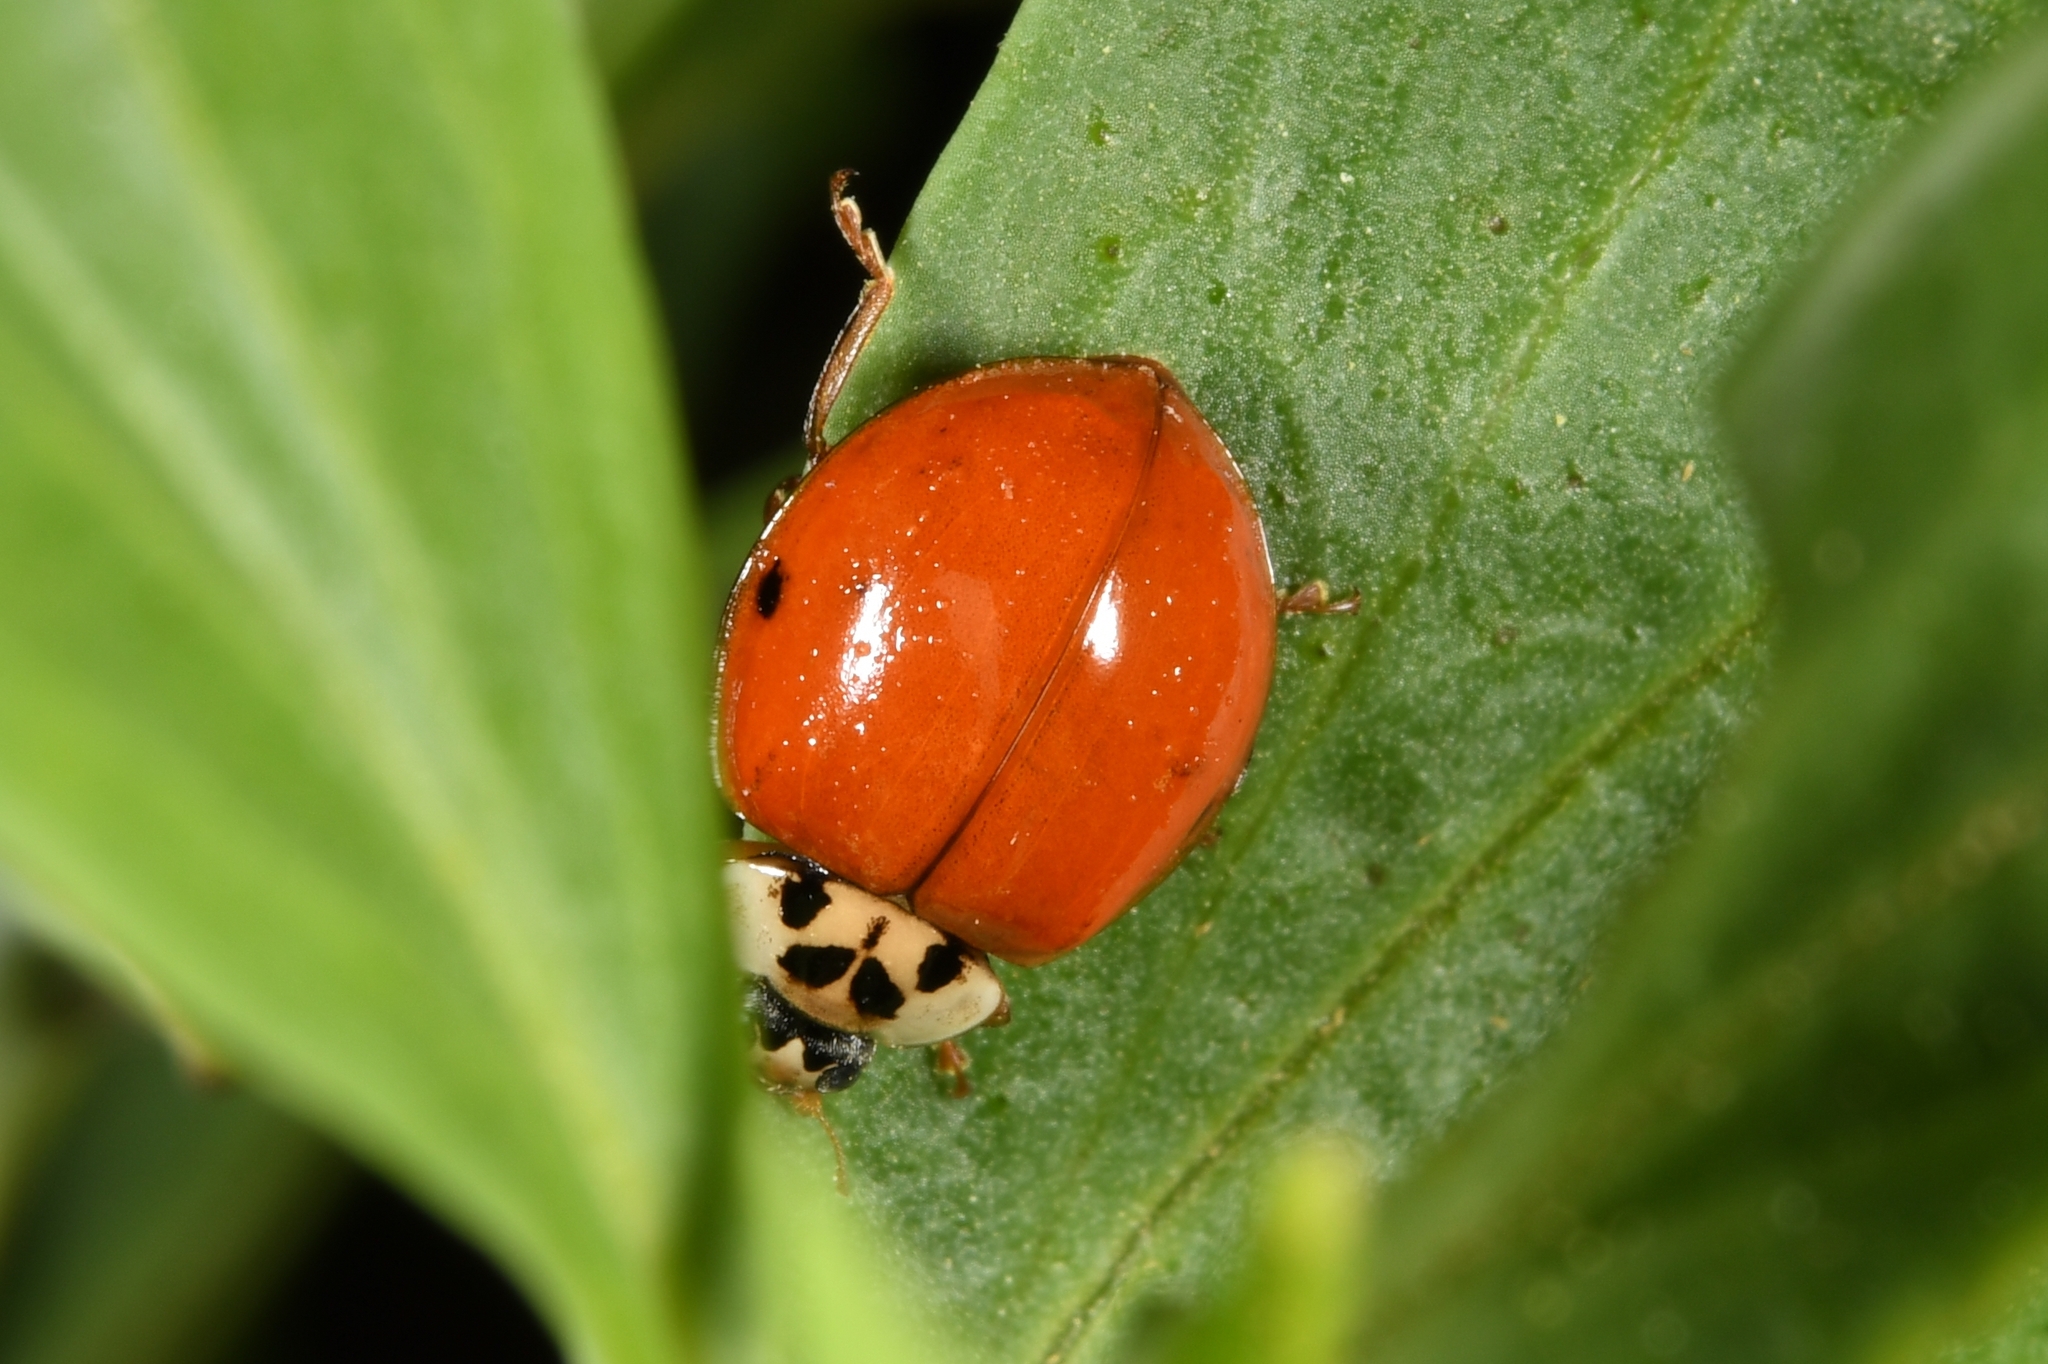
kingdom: Animalia
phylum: Arthropoda
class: Insecta
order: Coleoptera
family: Coccinellidae
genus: Harmonia
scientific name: Harmonia axyridis
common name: Harlequin ladybird
